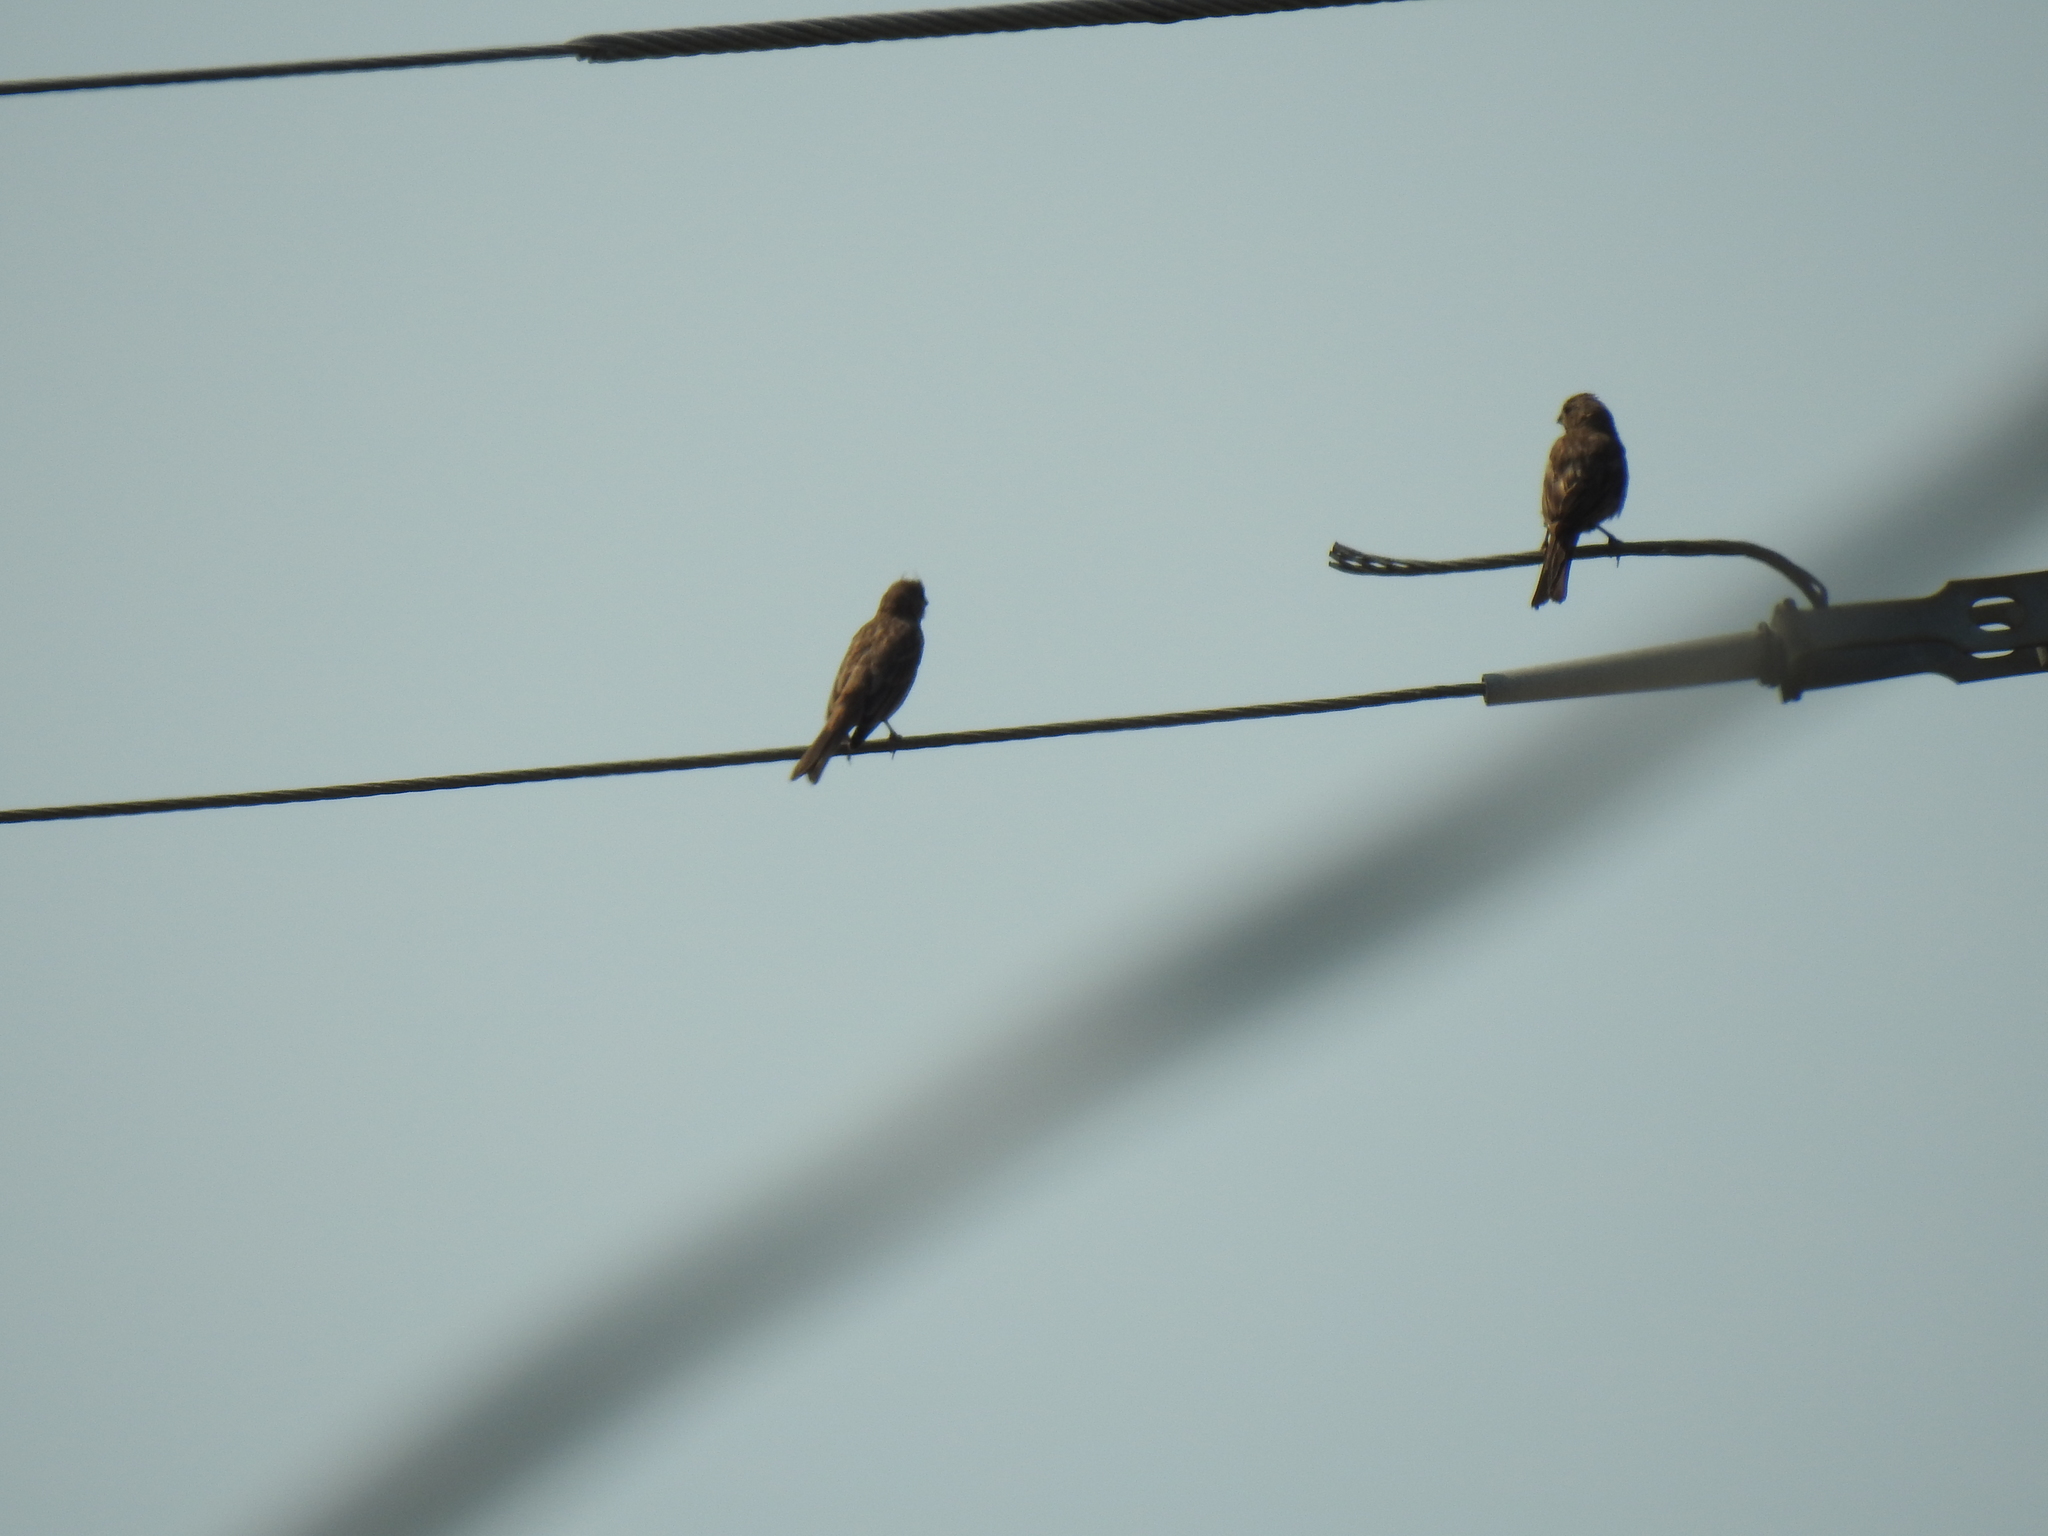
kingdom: Animalia
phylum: Chordata
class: Aves
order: Passeriformes
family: Fringillidae
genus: Haemorhous
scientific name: Haemorhous mexicanus
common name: House finch
